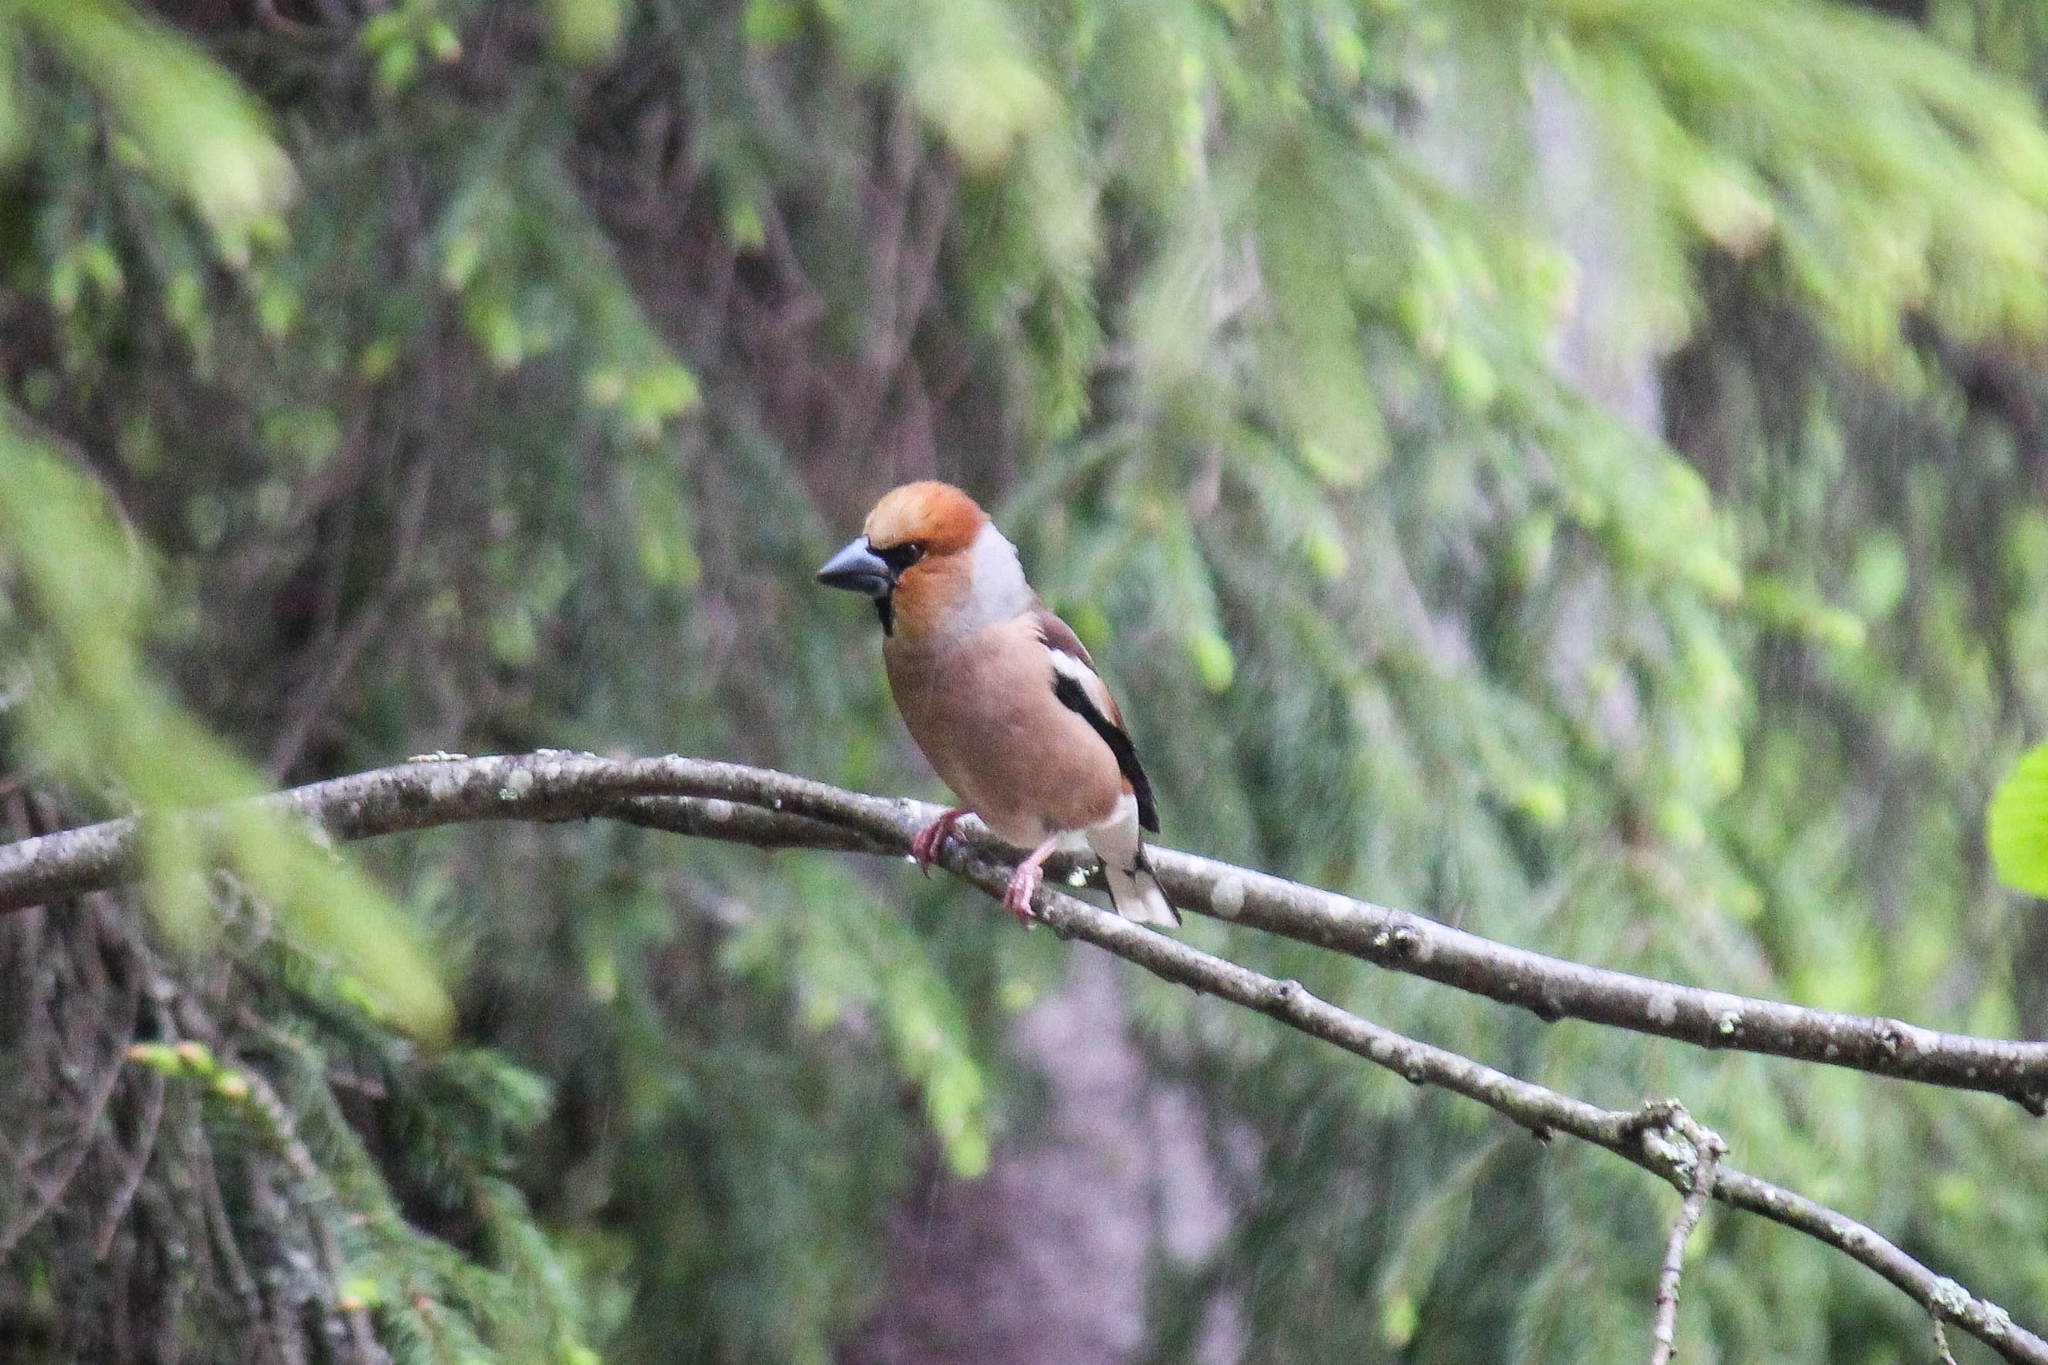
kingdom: Animalia
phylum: Chordata
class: Aves
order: Passeriformes
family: Fringillidae
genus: Coccothraustes
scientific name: Coccothraustes coccothraustes
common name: Hawfinch
